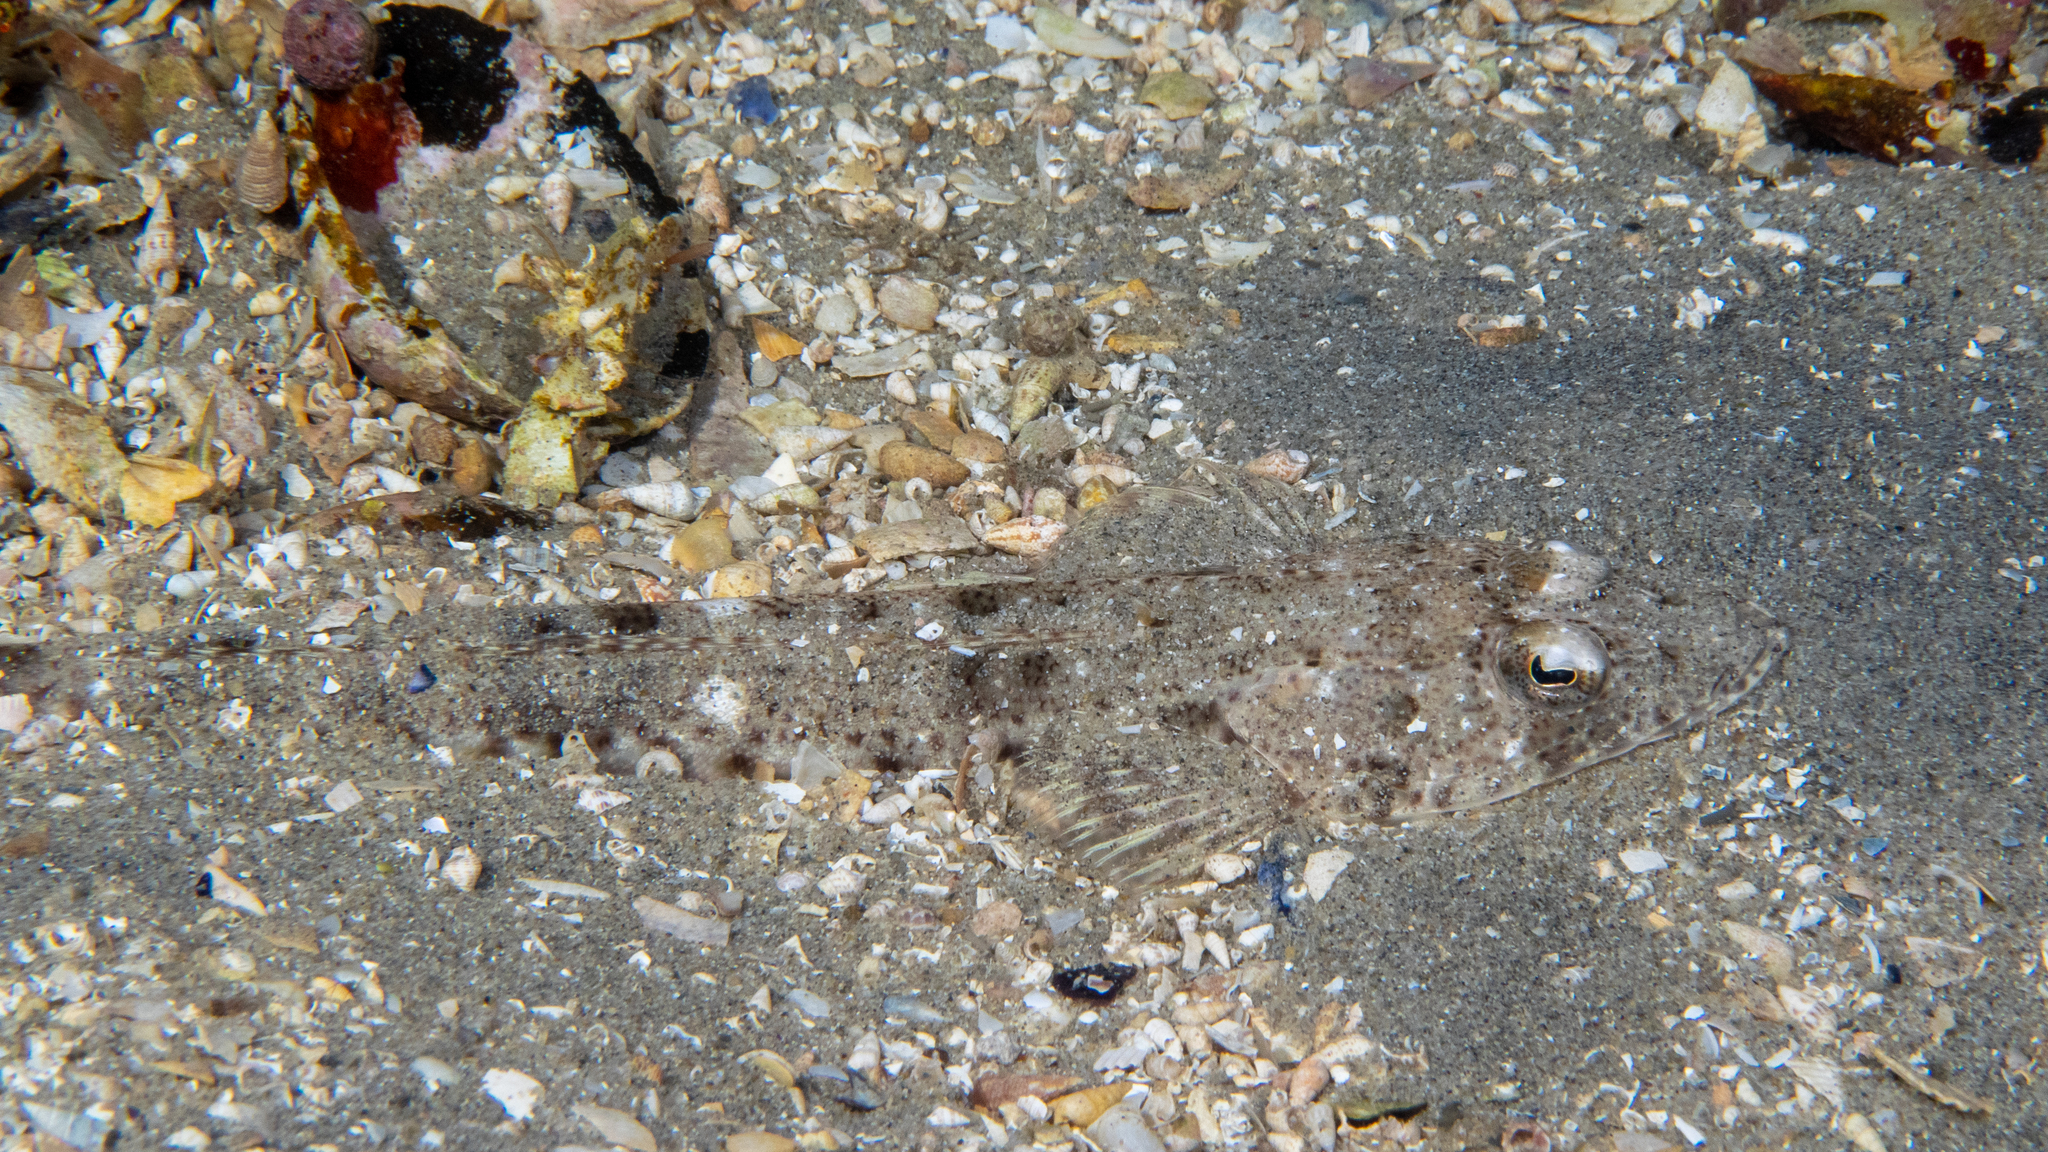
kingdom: Animalia
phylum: Chordata
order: Scorpaeniformes
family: Platycephalidae
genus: Platycephalus
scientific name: Platycephalus speculator
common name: Bluespot flathead
